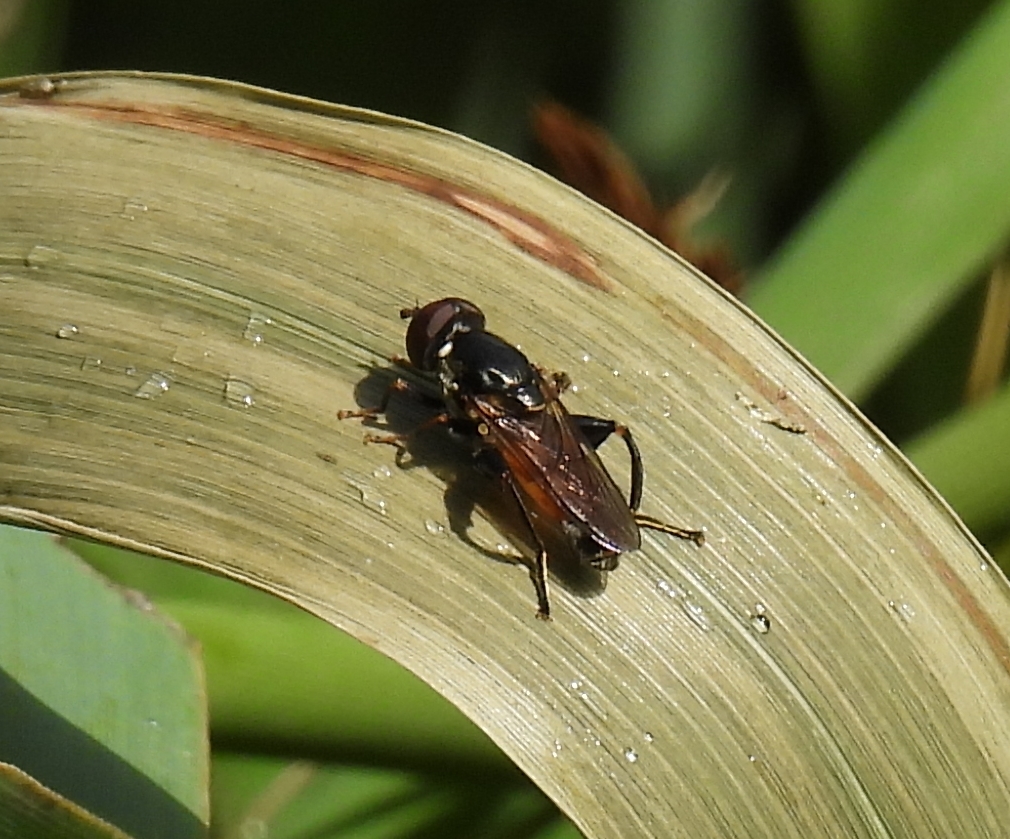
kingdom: Animalia
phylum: Arthropoda
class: Insecta
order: Diptera
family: Syrphidae
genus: Tropidia
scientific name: Tropidia scita
